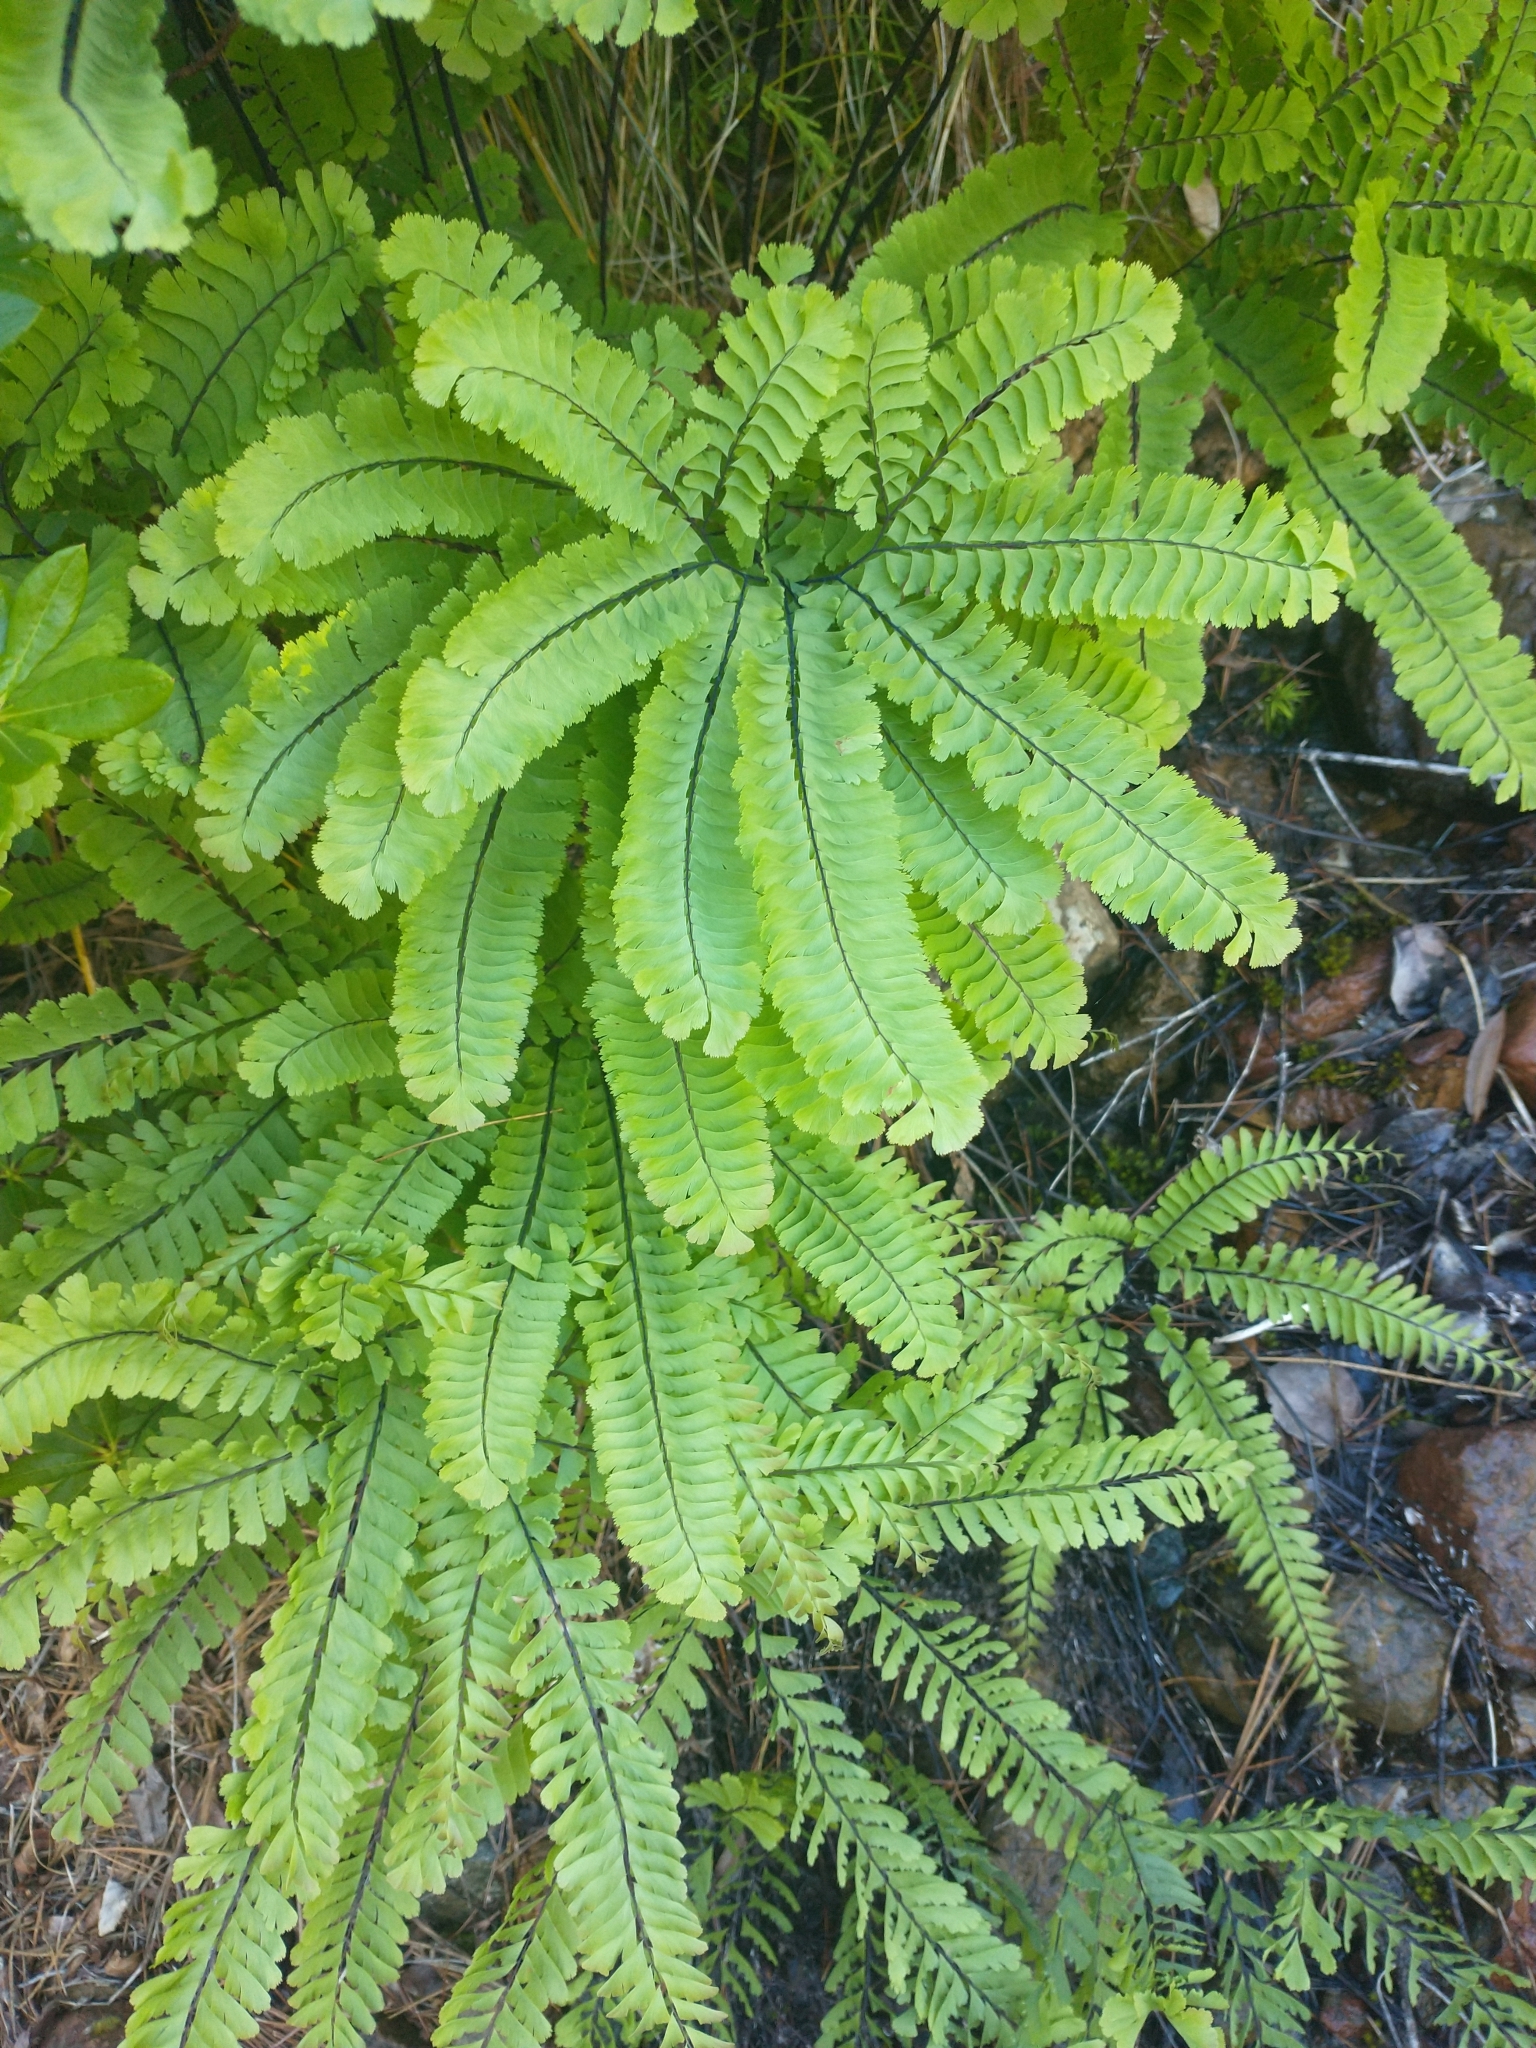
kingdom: Plantae
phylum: Tracheophyta
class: Polypodiopsida
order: Polypodiales
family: Pteridaceae
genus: Adiantum
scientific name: Adiantum aleuticum
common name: Aleutian maidenhair fern
